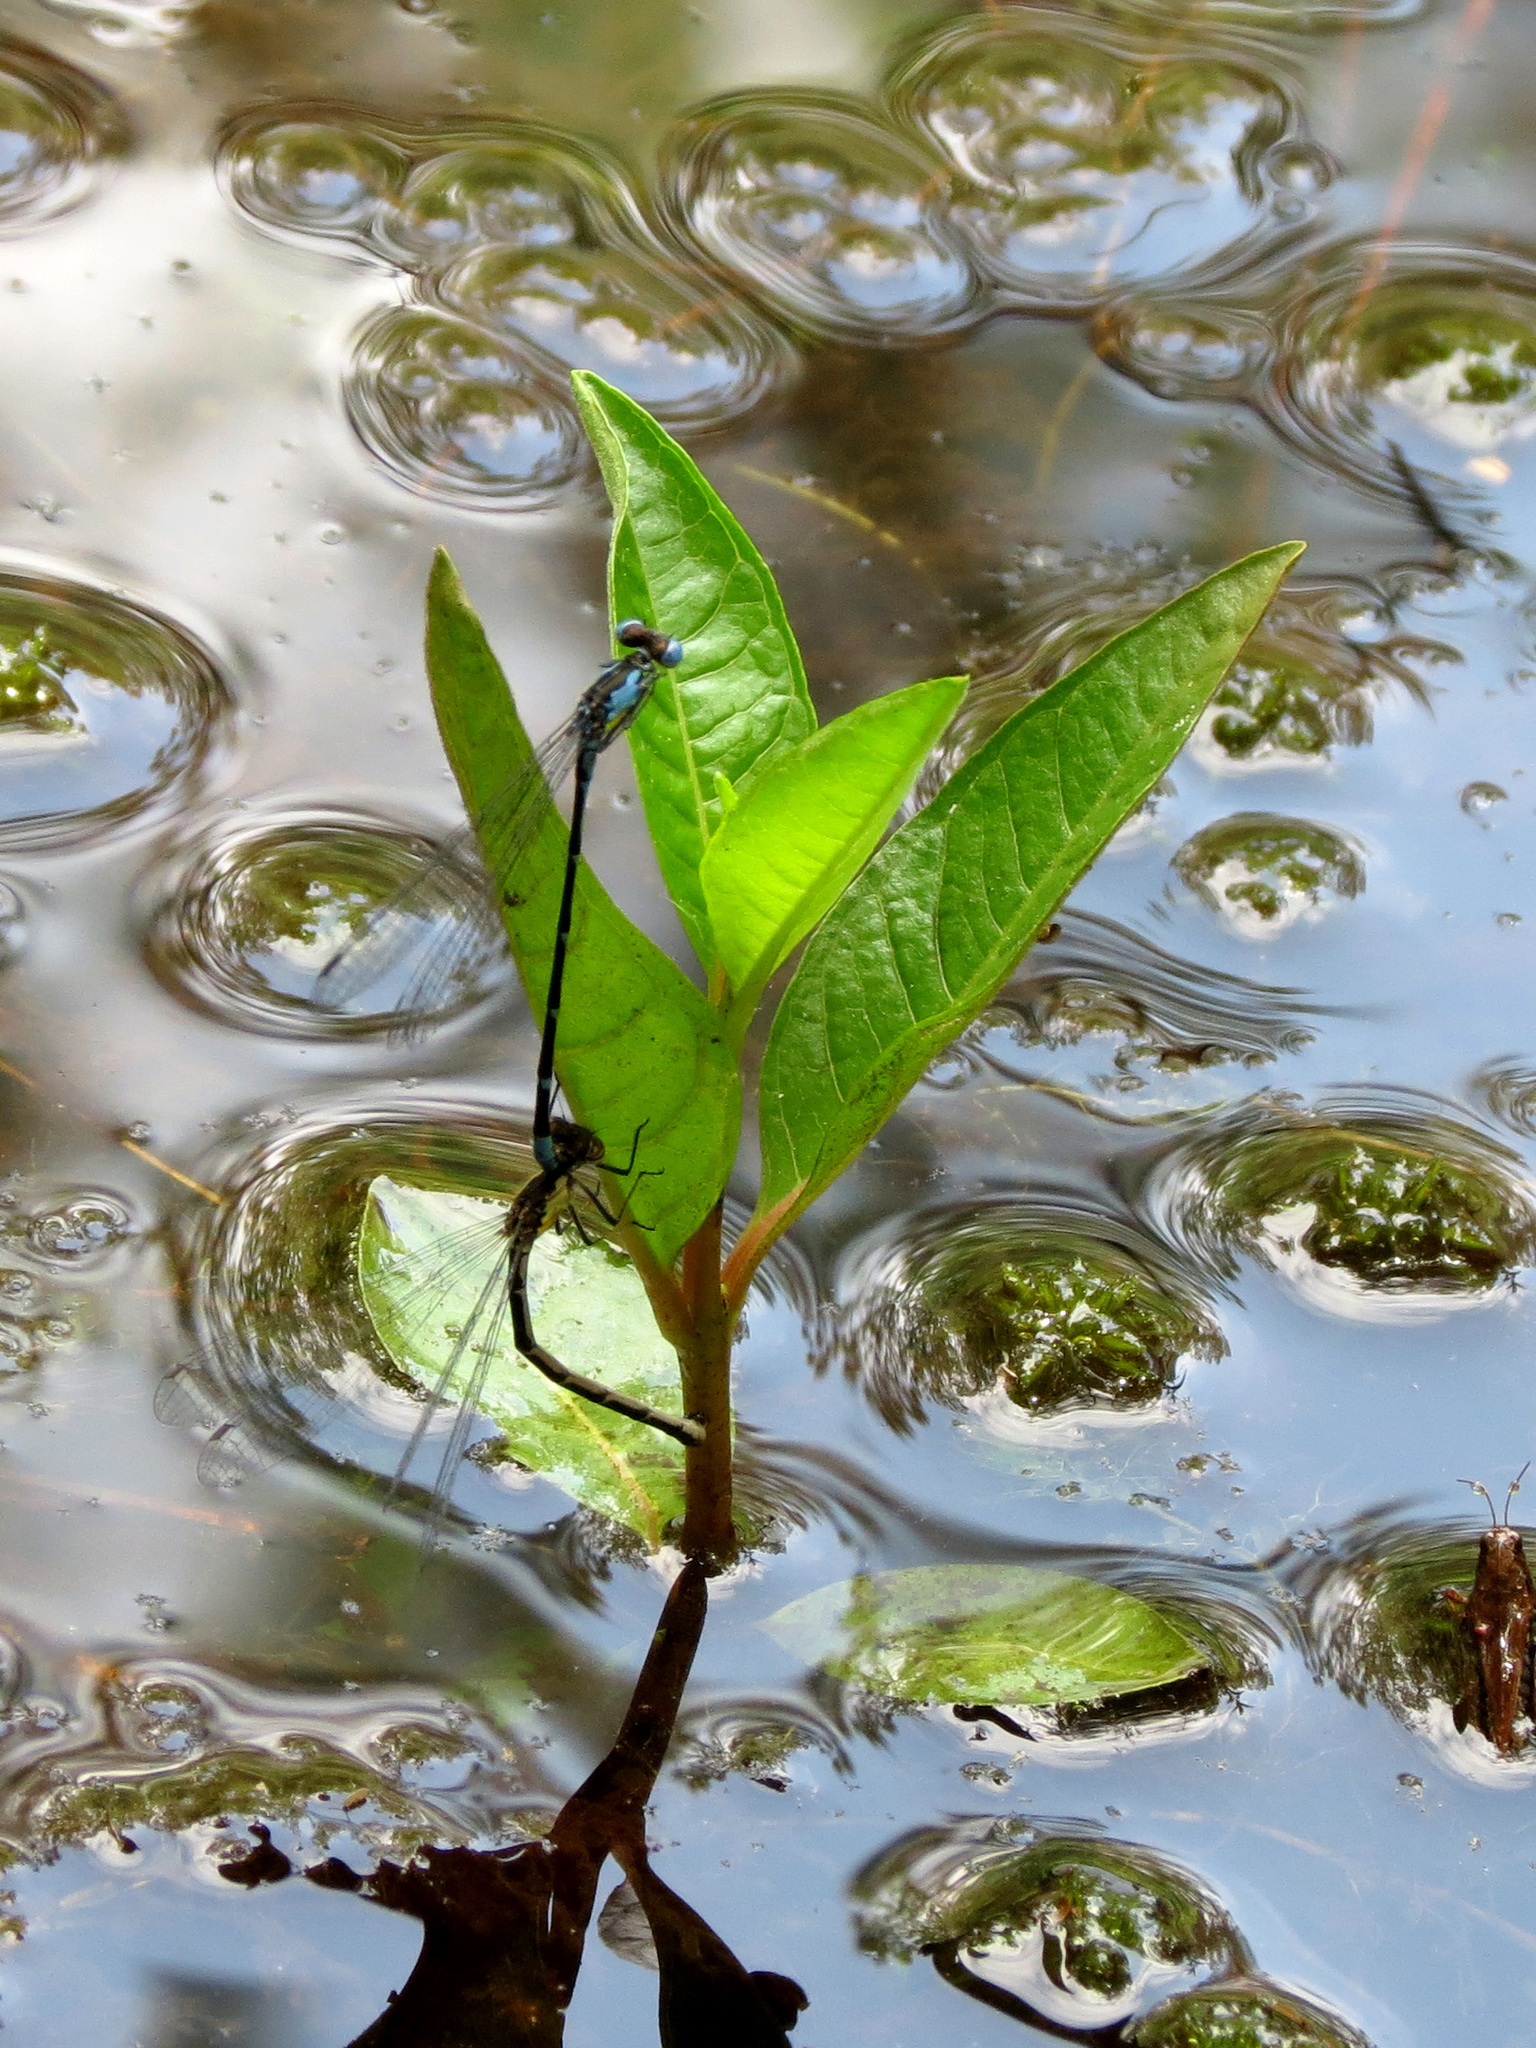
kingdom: Animalia
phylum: Arthropoda
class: Insecta
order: Odonata
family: Coenagrionidae
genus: Chromagrion
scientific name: Chromagrion conditum
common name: Aurora damsel
